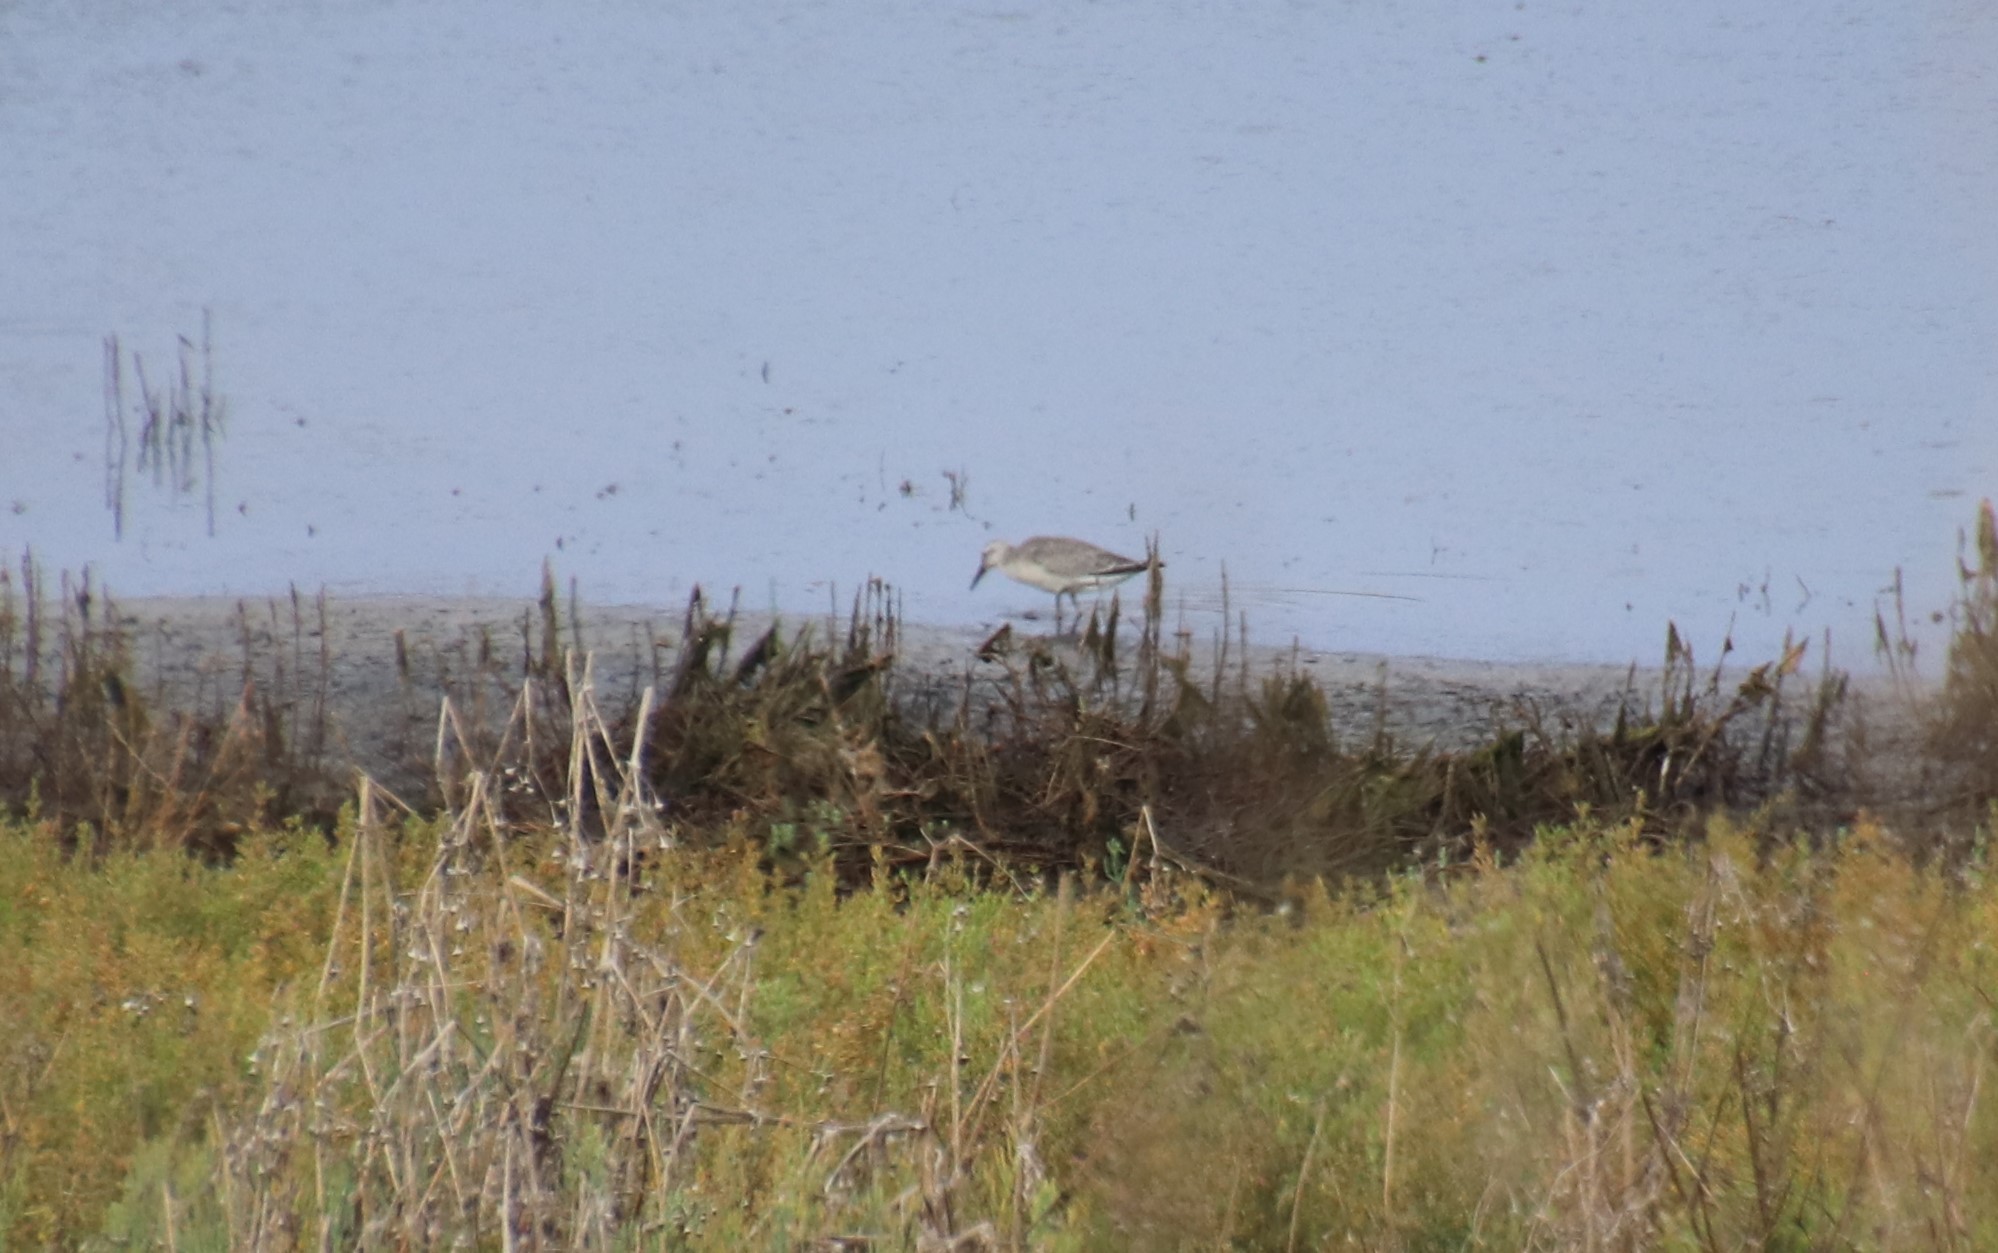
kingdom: Animalia
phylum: Chordata
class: Aves
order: Charadriiformes
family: Scolopacidae
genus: Calidris
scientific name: Calidris canutus
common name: Red knot
